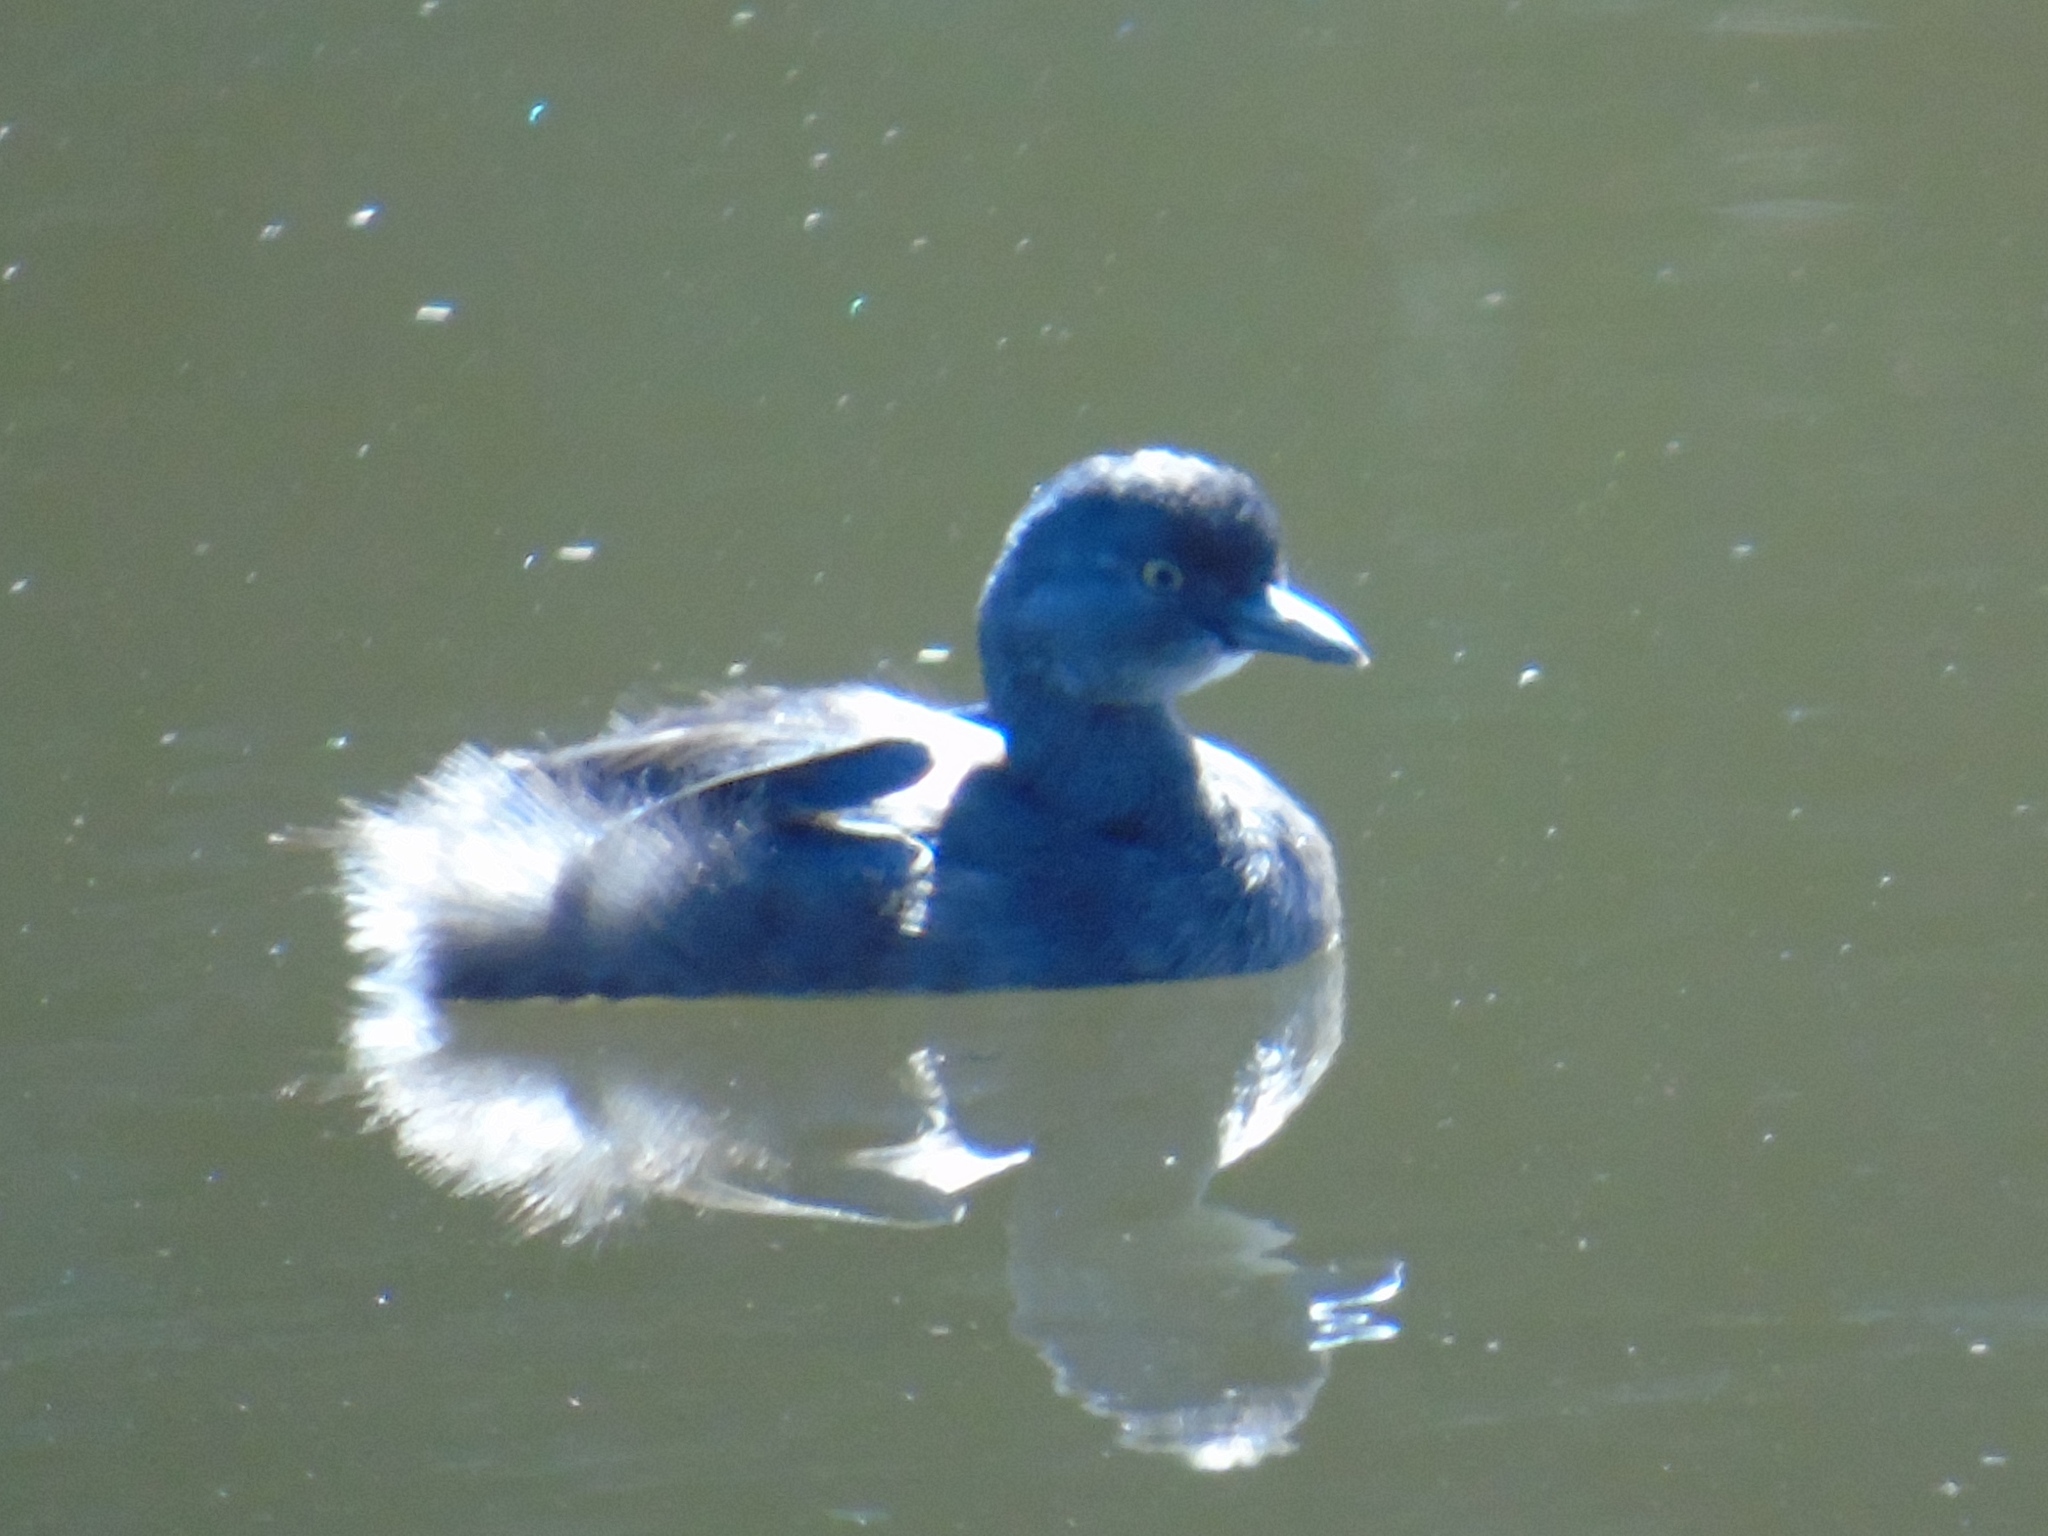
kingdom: Animalia
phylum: Chordata
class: Aves
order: Podicipediformes
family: Podicipedidae
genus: Tachybaptus
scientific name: Tachybaptus dominicus
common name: Least grebe
